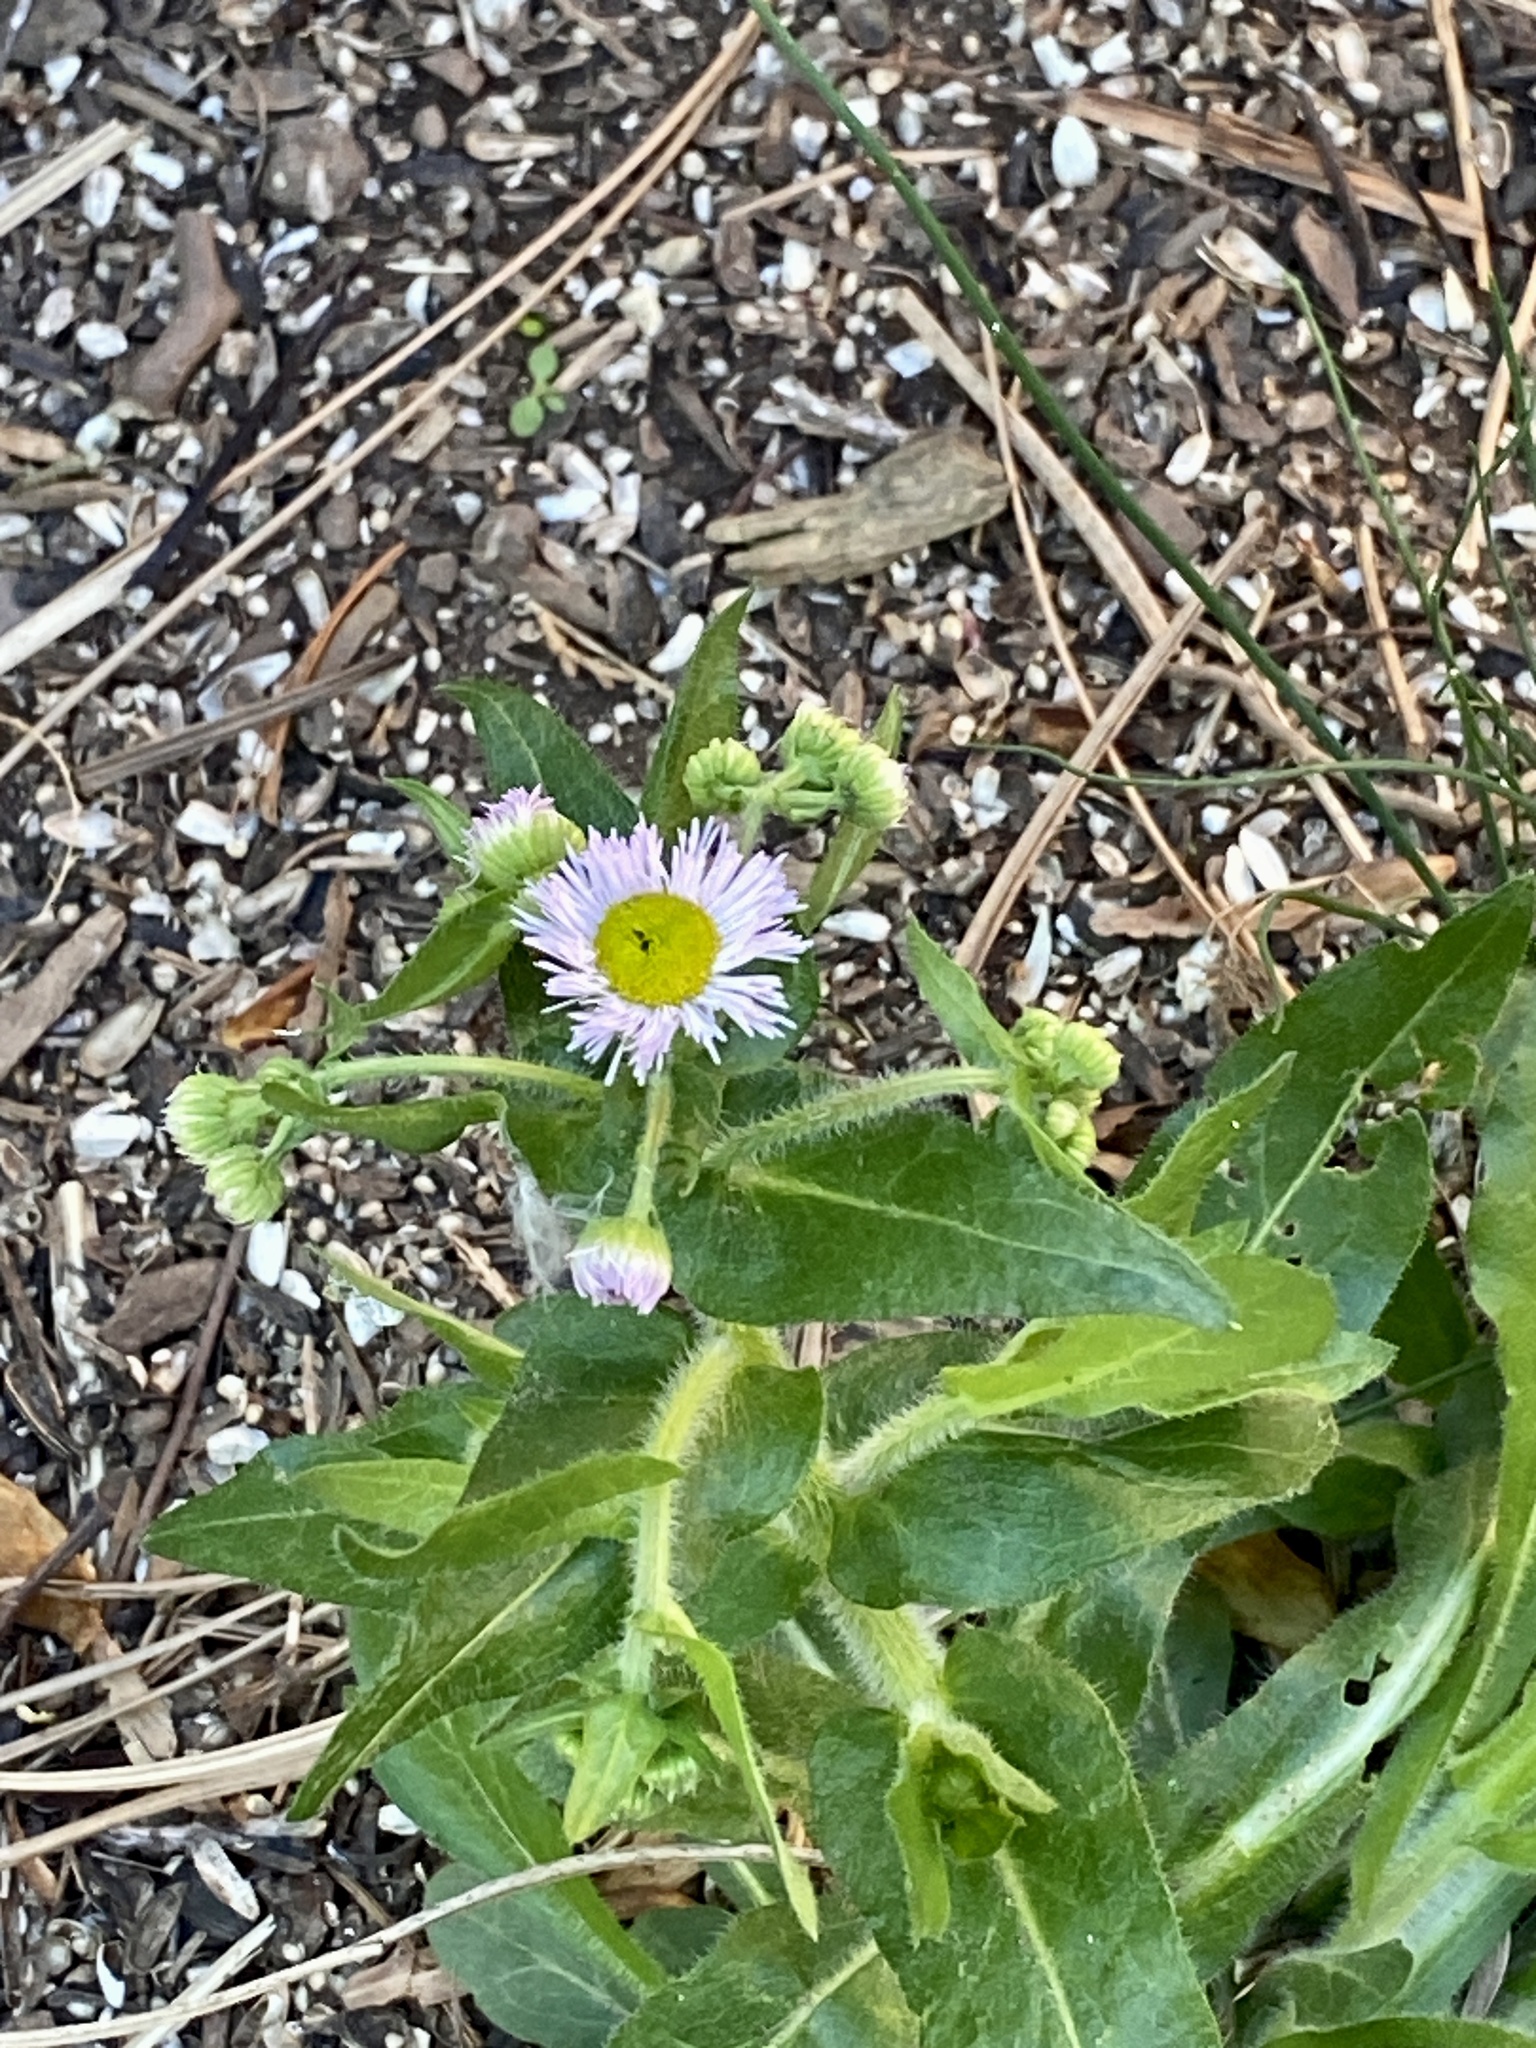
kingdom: Plantae
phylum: Tracheophyta
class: Magnoliopsida
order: Asterales
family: Asteraceae
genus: Erigeron
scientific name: Erigeron philadelphicus
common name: Robin's-plantain
